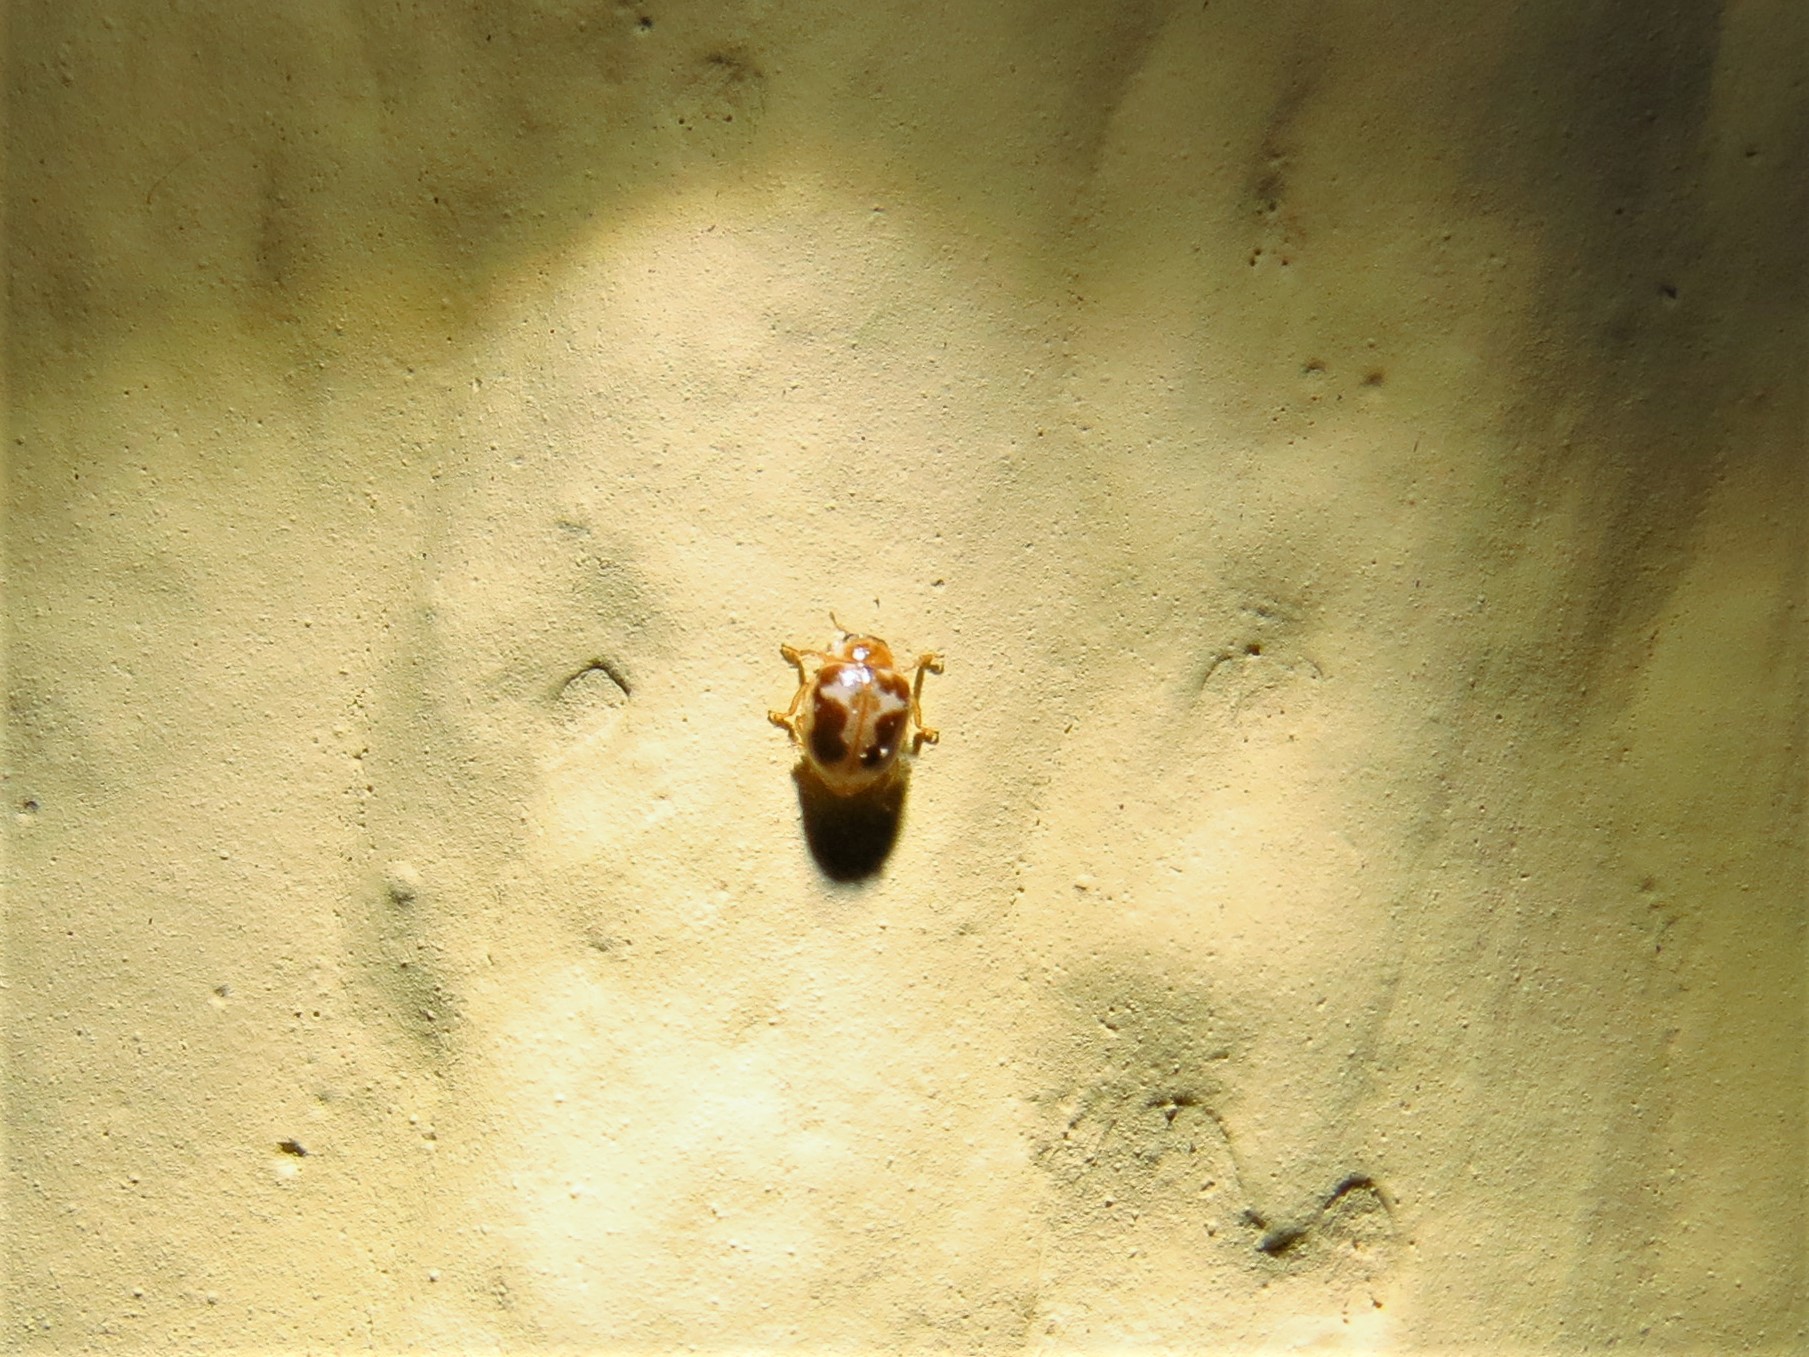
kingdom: Animalia
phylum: Arthropoda
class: Insecta
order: Coleoptera
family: Coccinellidae
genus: Psyllobora
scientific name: Psyllobora renifer
